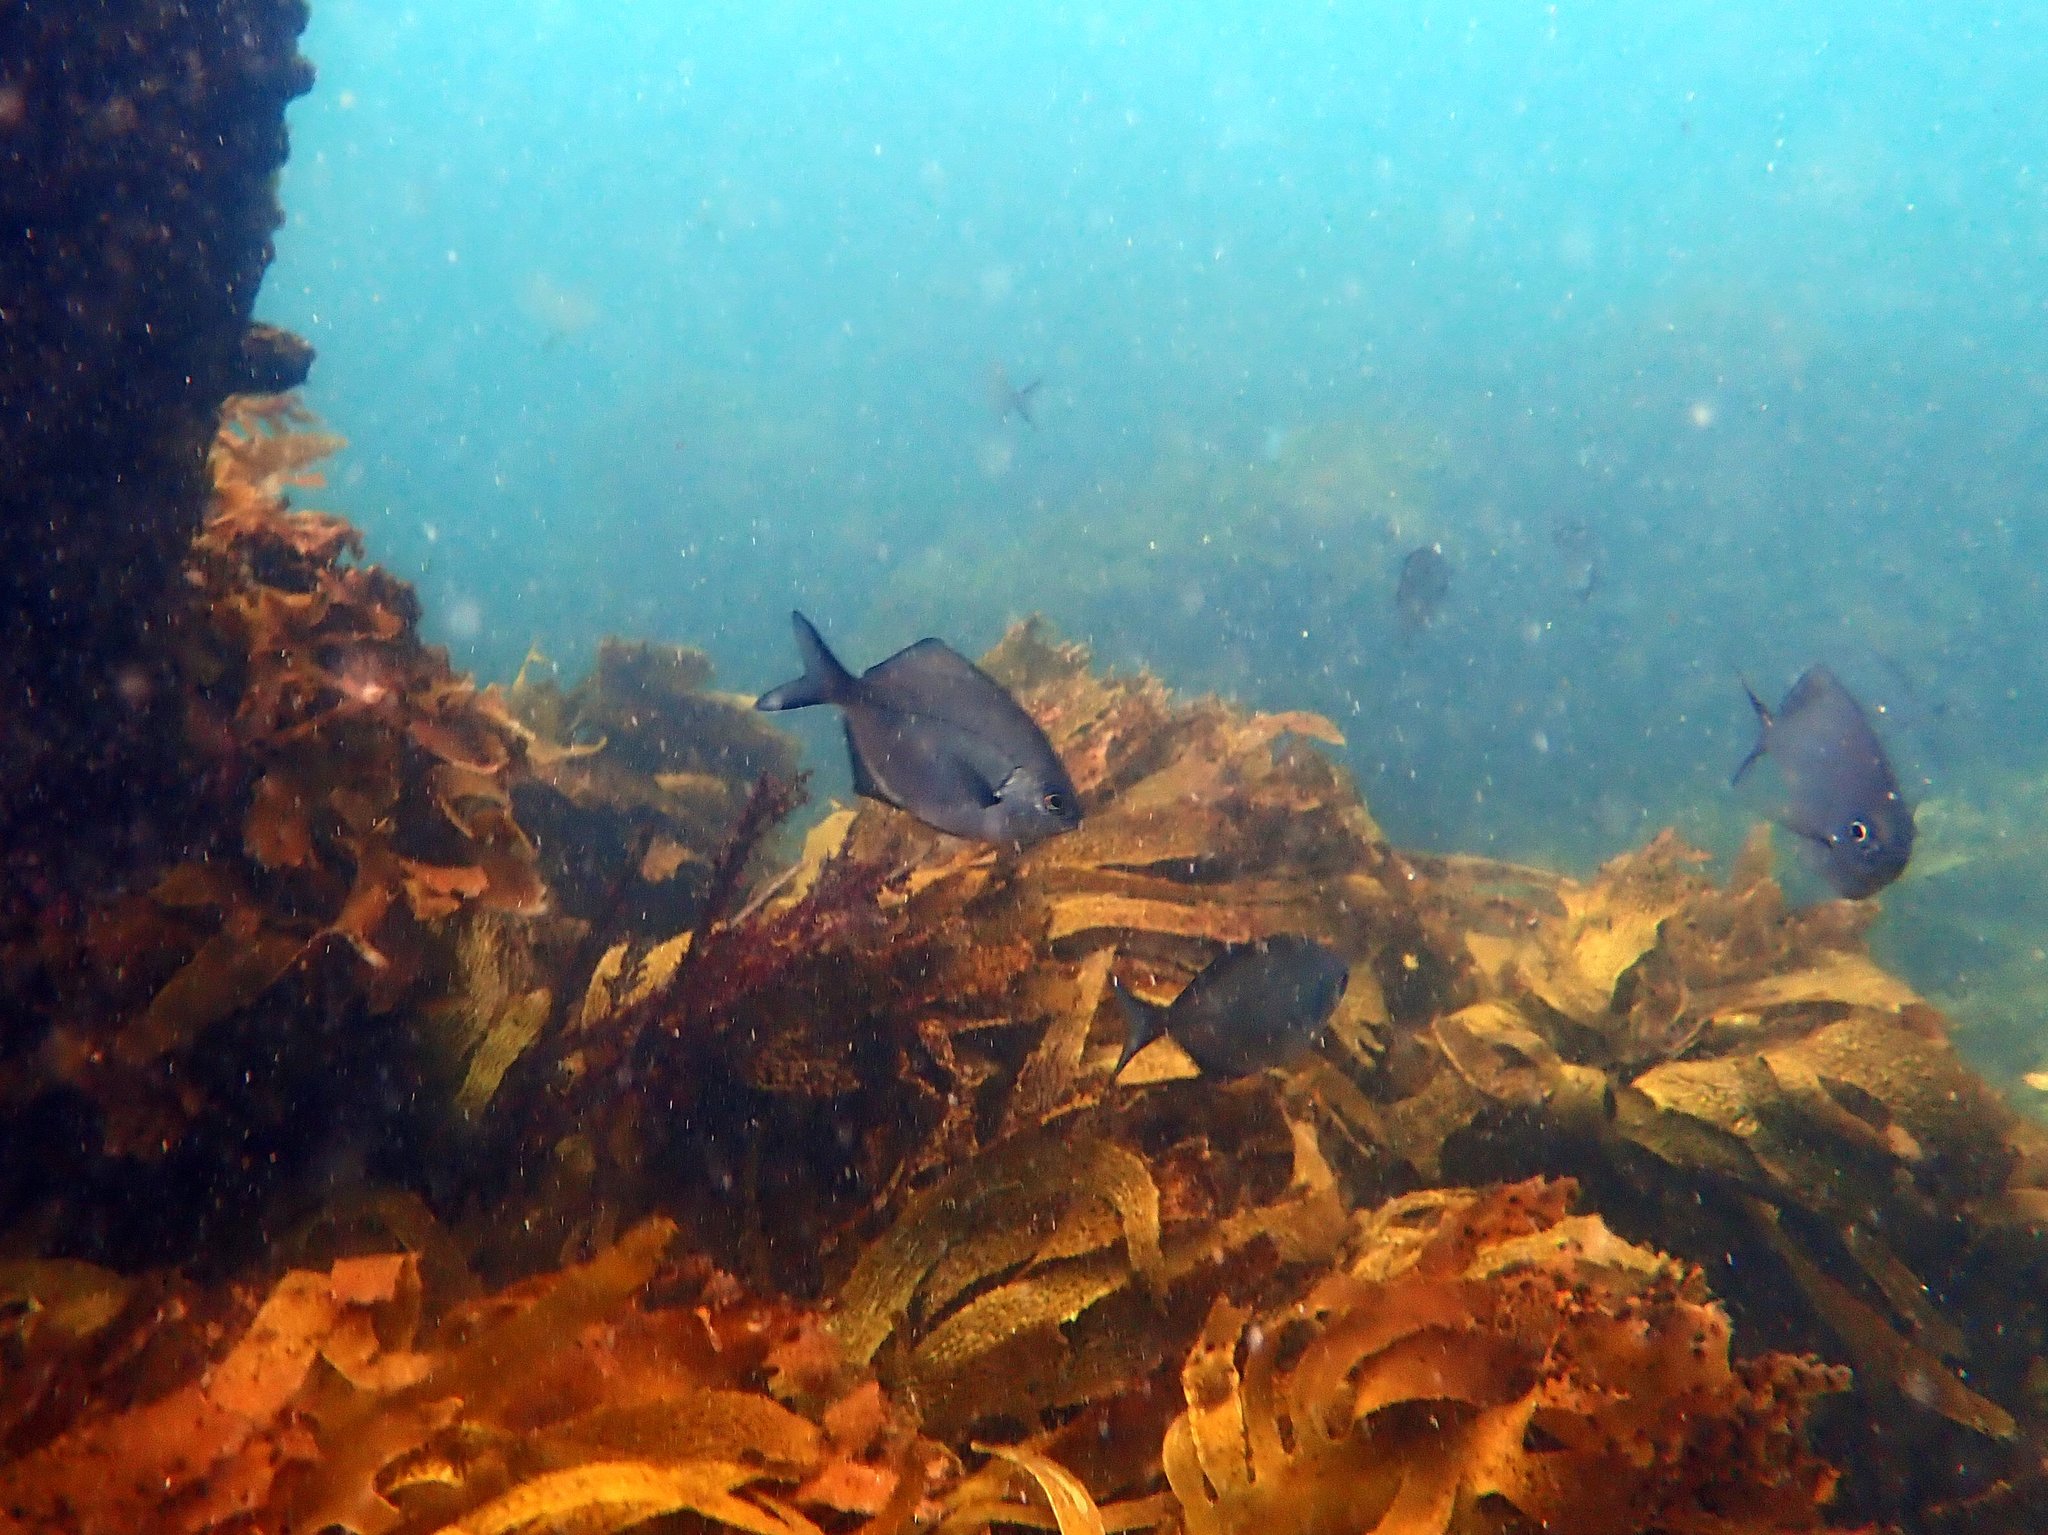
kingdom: Animalia
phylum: Chordata
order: Perciformes
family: Kyphosidae
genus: Scorpis
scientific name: Scorpis lineolata
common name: Sweep
